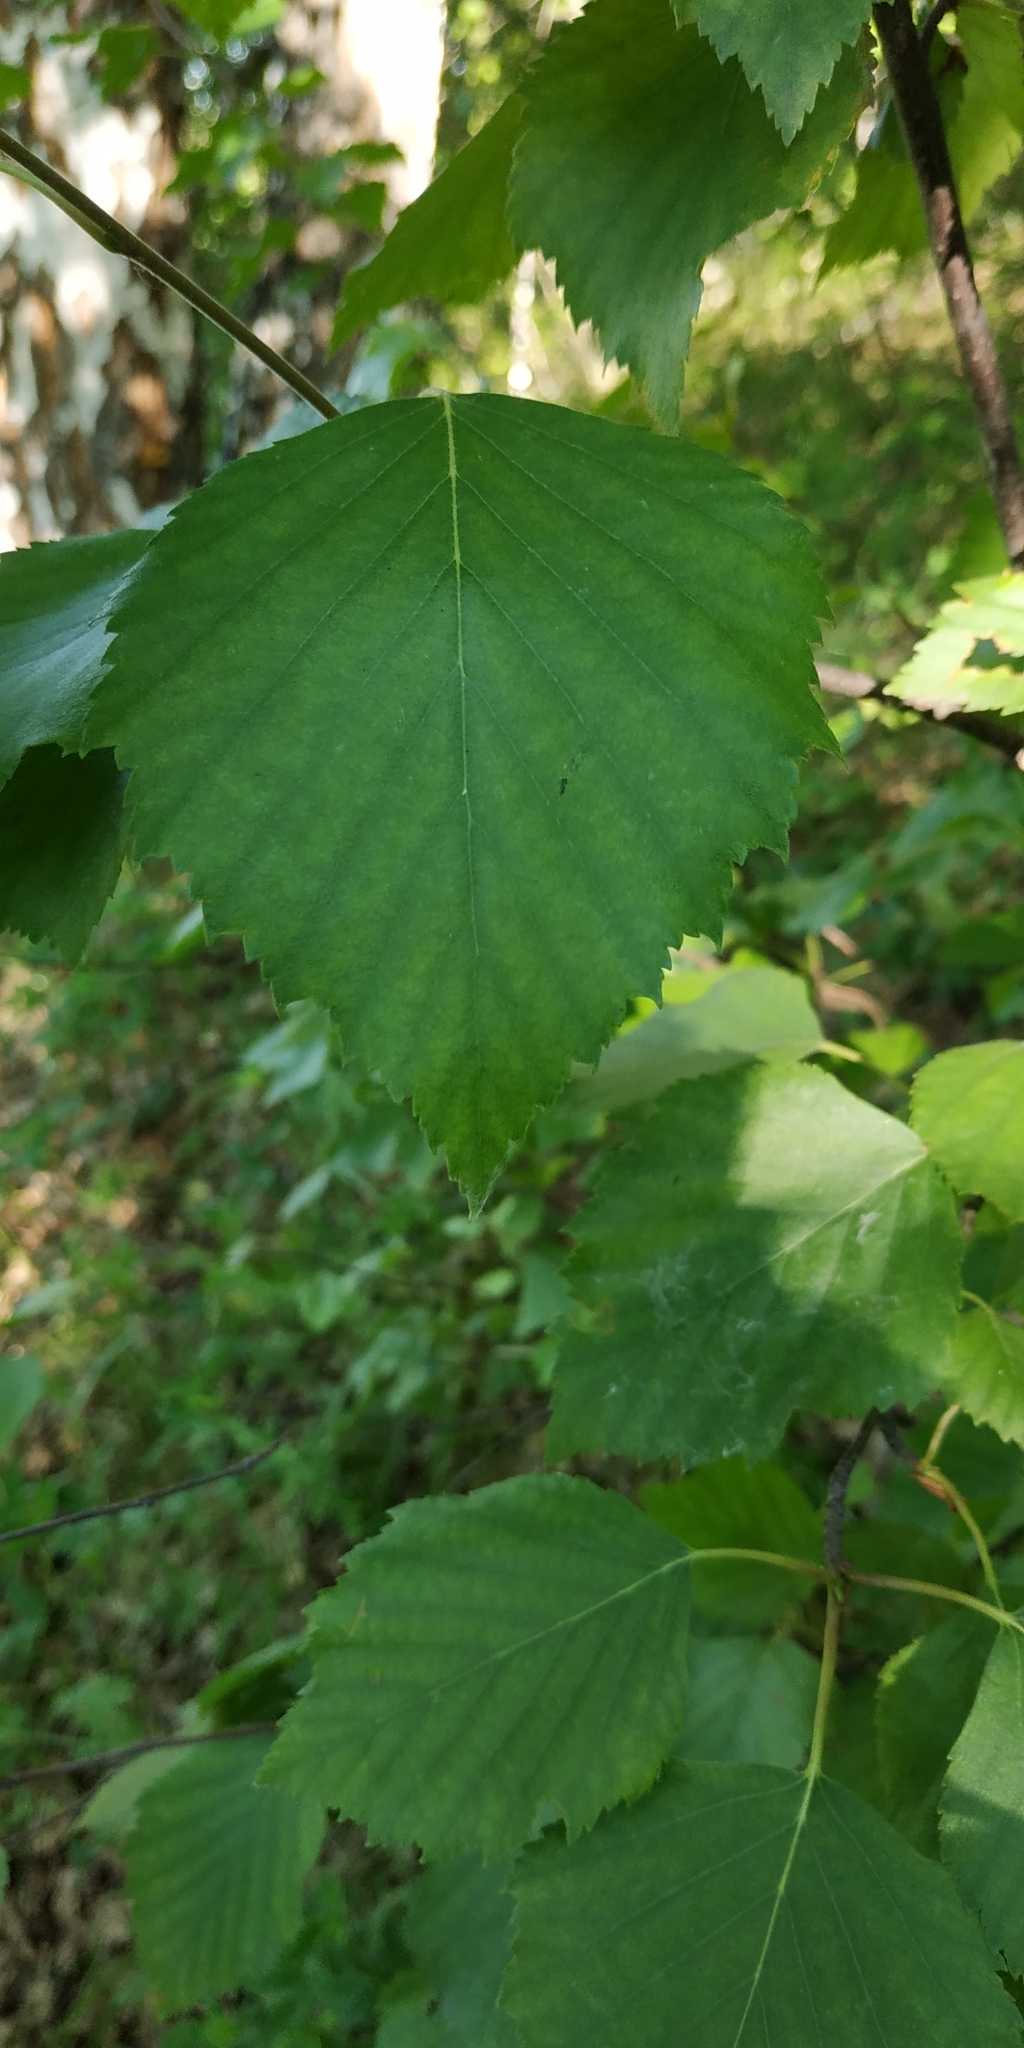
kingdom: Plantae
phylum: Tracheophyta
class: Magnoliopsida
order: Fagales
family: Betulaceae
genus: Betula
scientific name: Betula pubescens
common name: Downy birch
